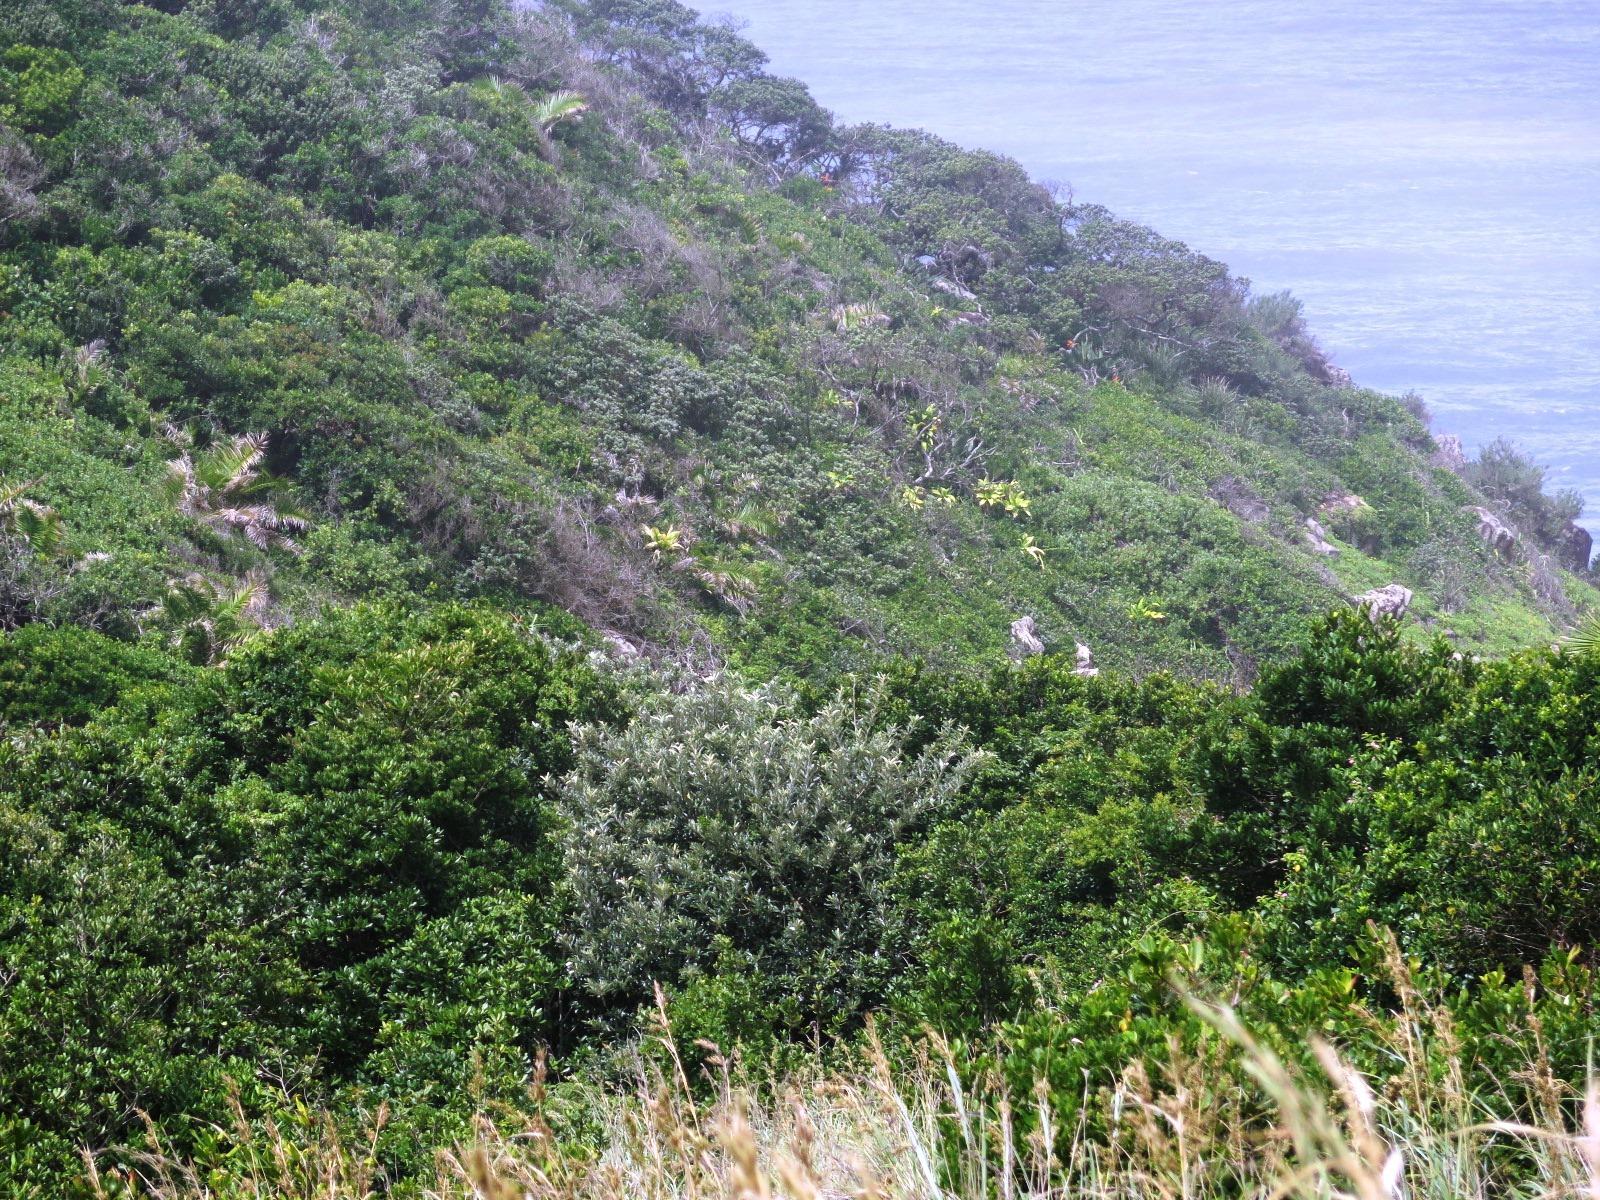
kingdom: Plantae
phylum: Tracheophyta
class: Liliopsida
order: Asparagales
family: Asparagaceae
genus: Dracaena
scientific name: Dracaena aletriformis
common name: Large-leaved dragon tree
